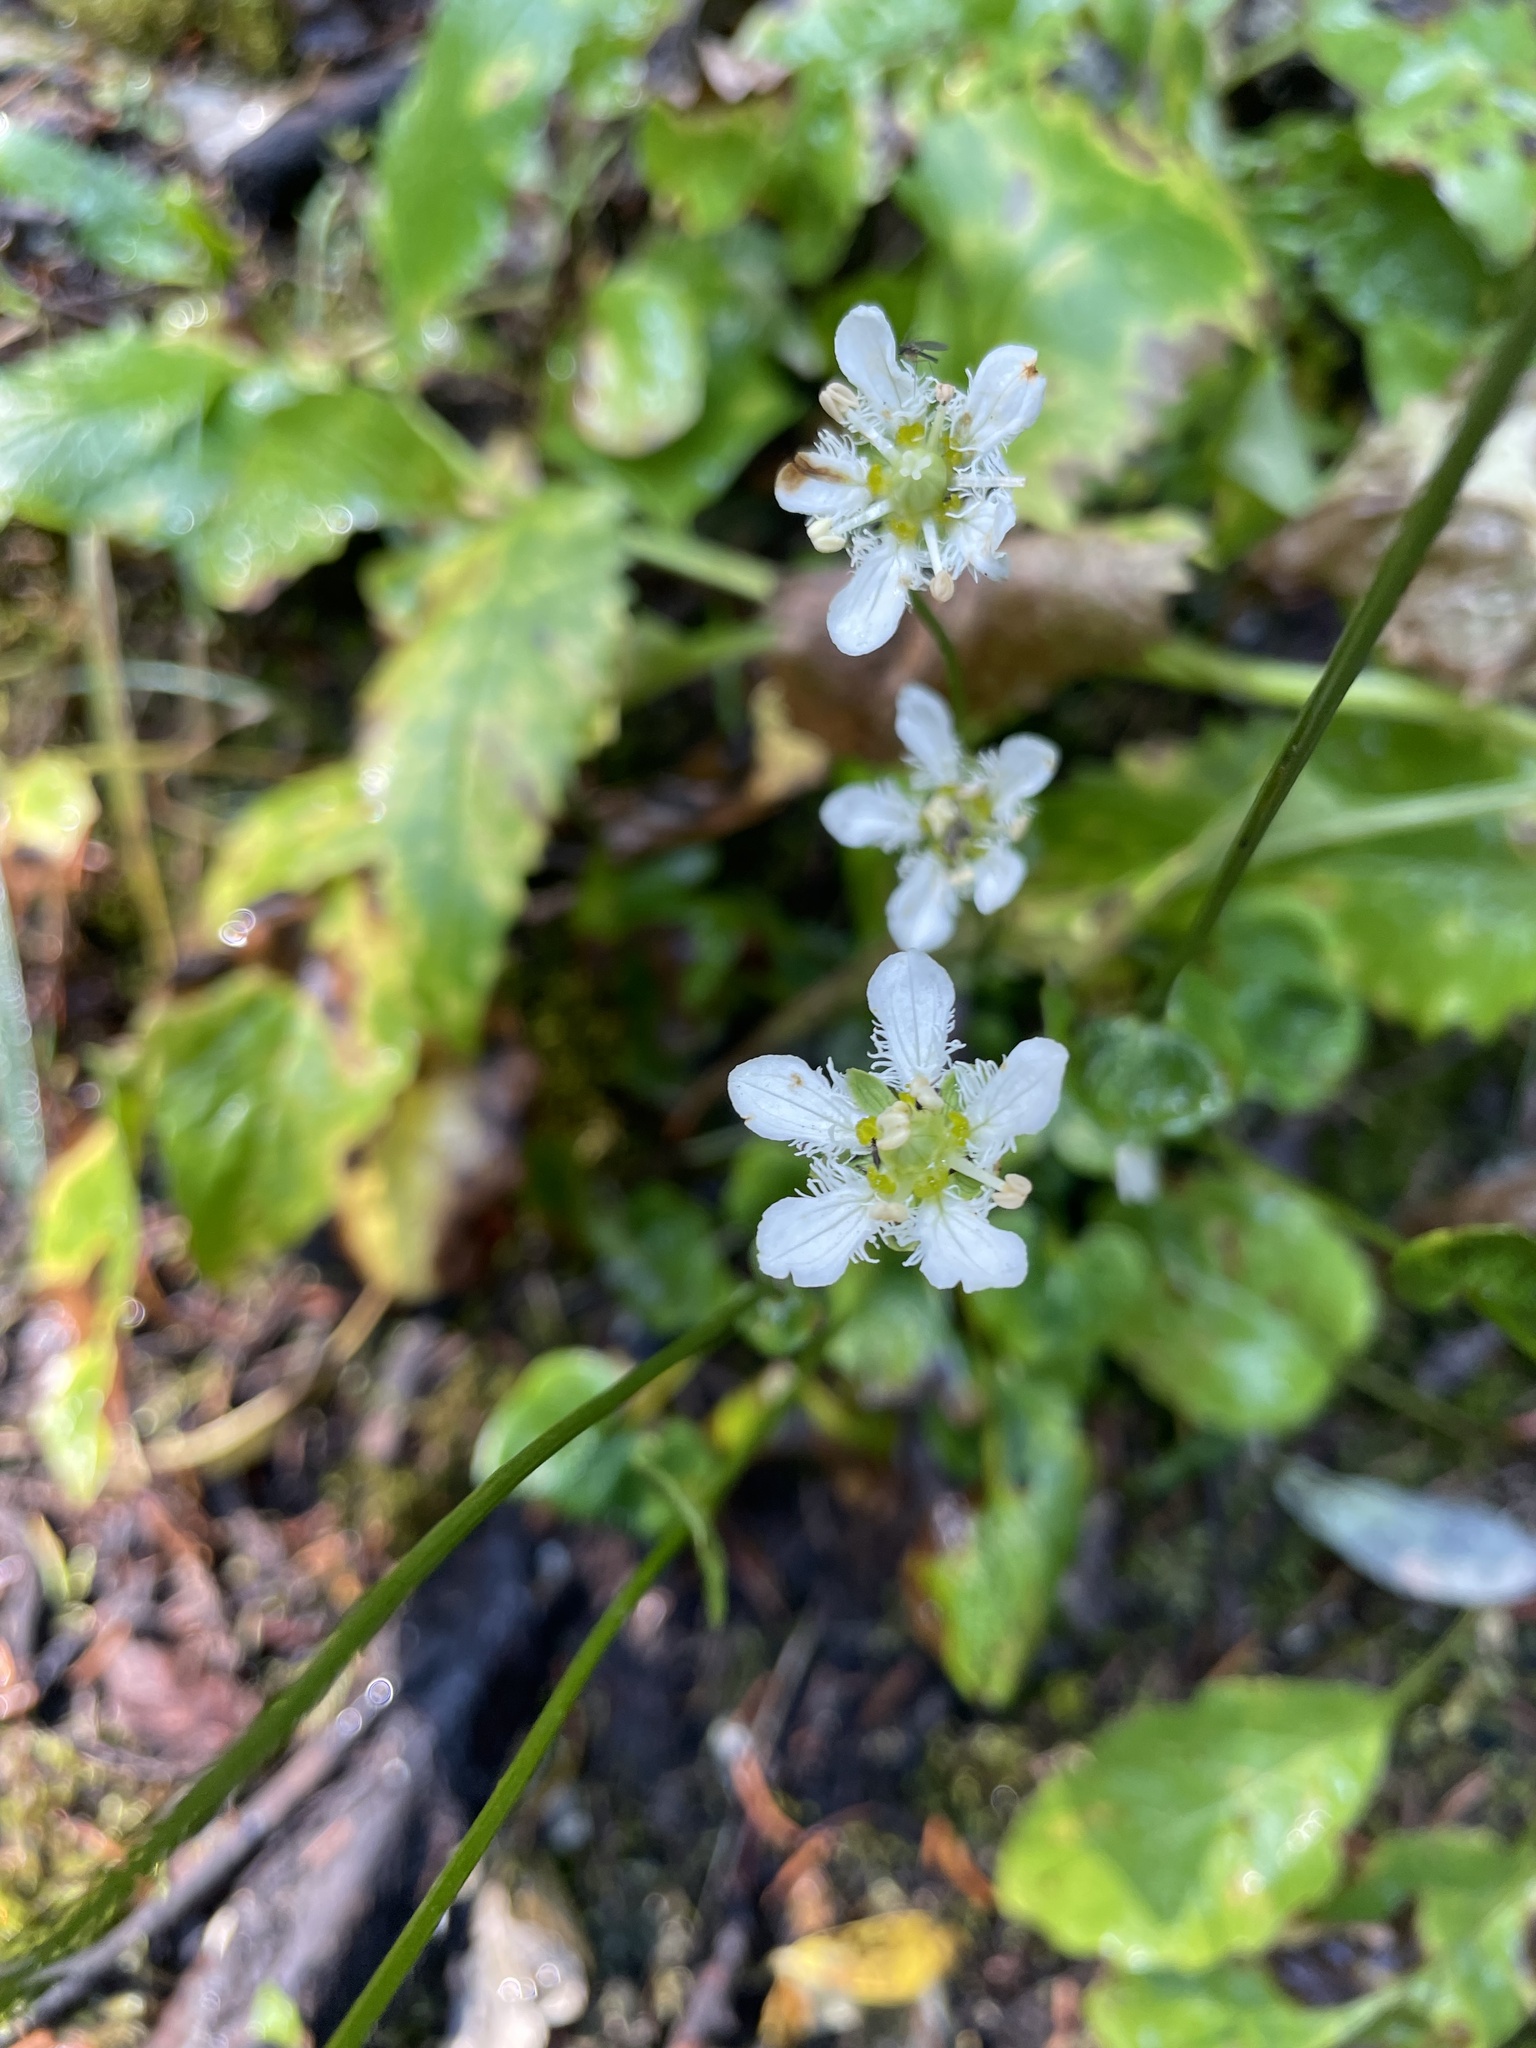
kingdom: Plantae
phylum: Tracheophyta
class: Magnoliopsida
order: Celastrales
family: Parnassiaceae
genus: Parnassia
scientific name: Parnassia fimbriata
